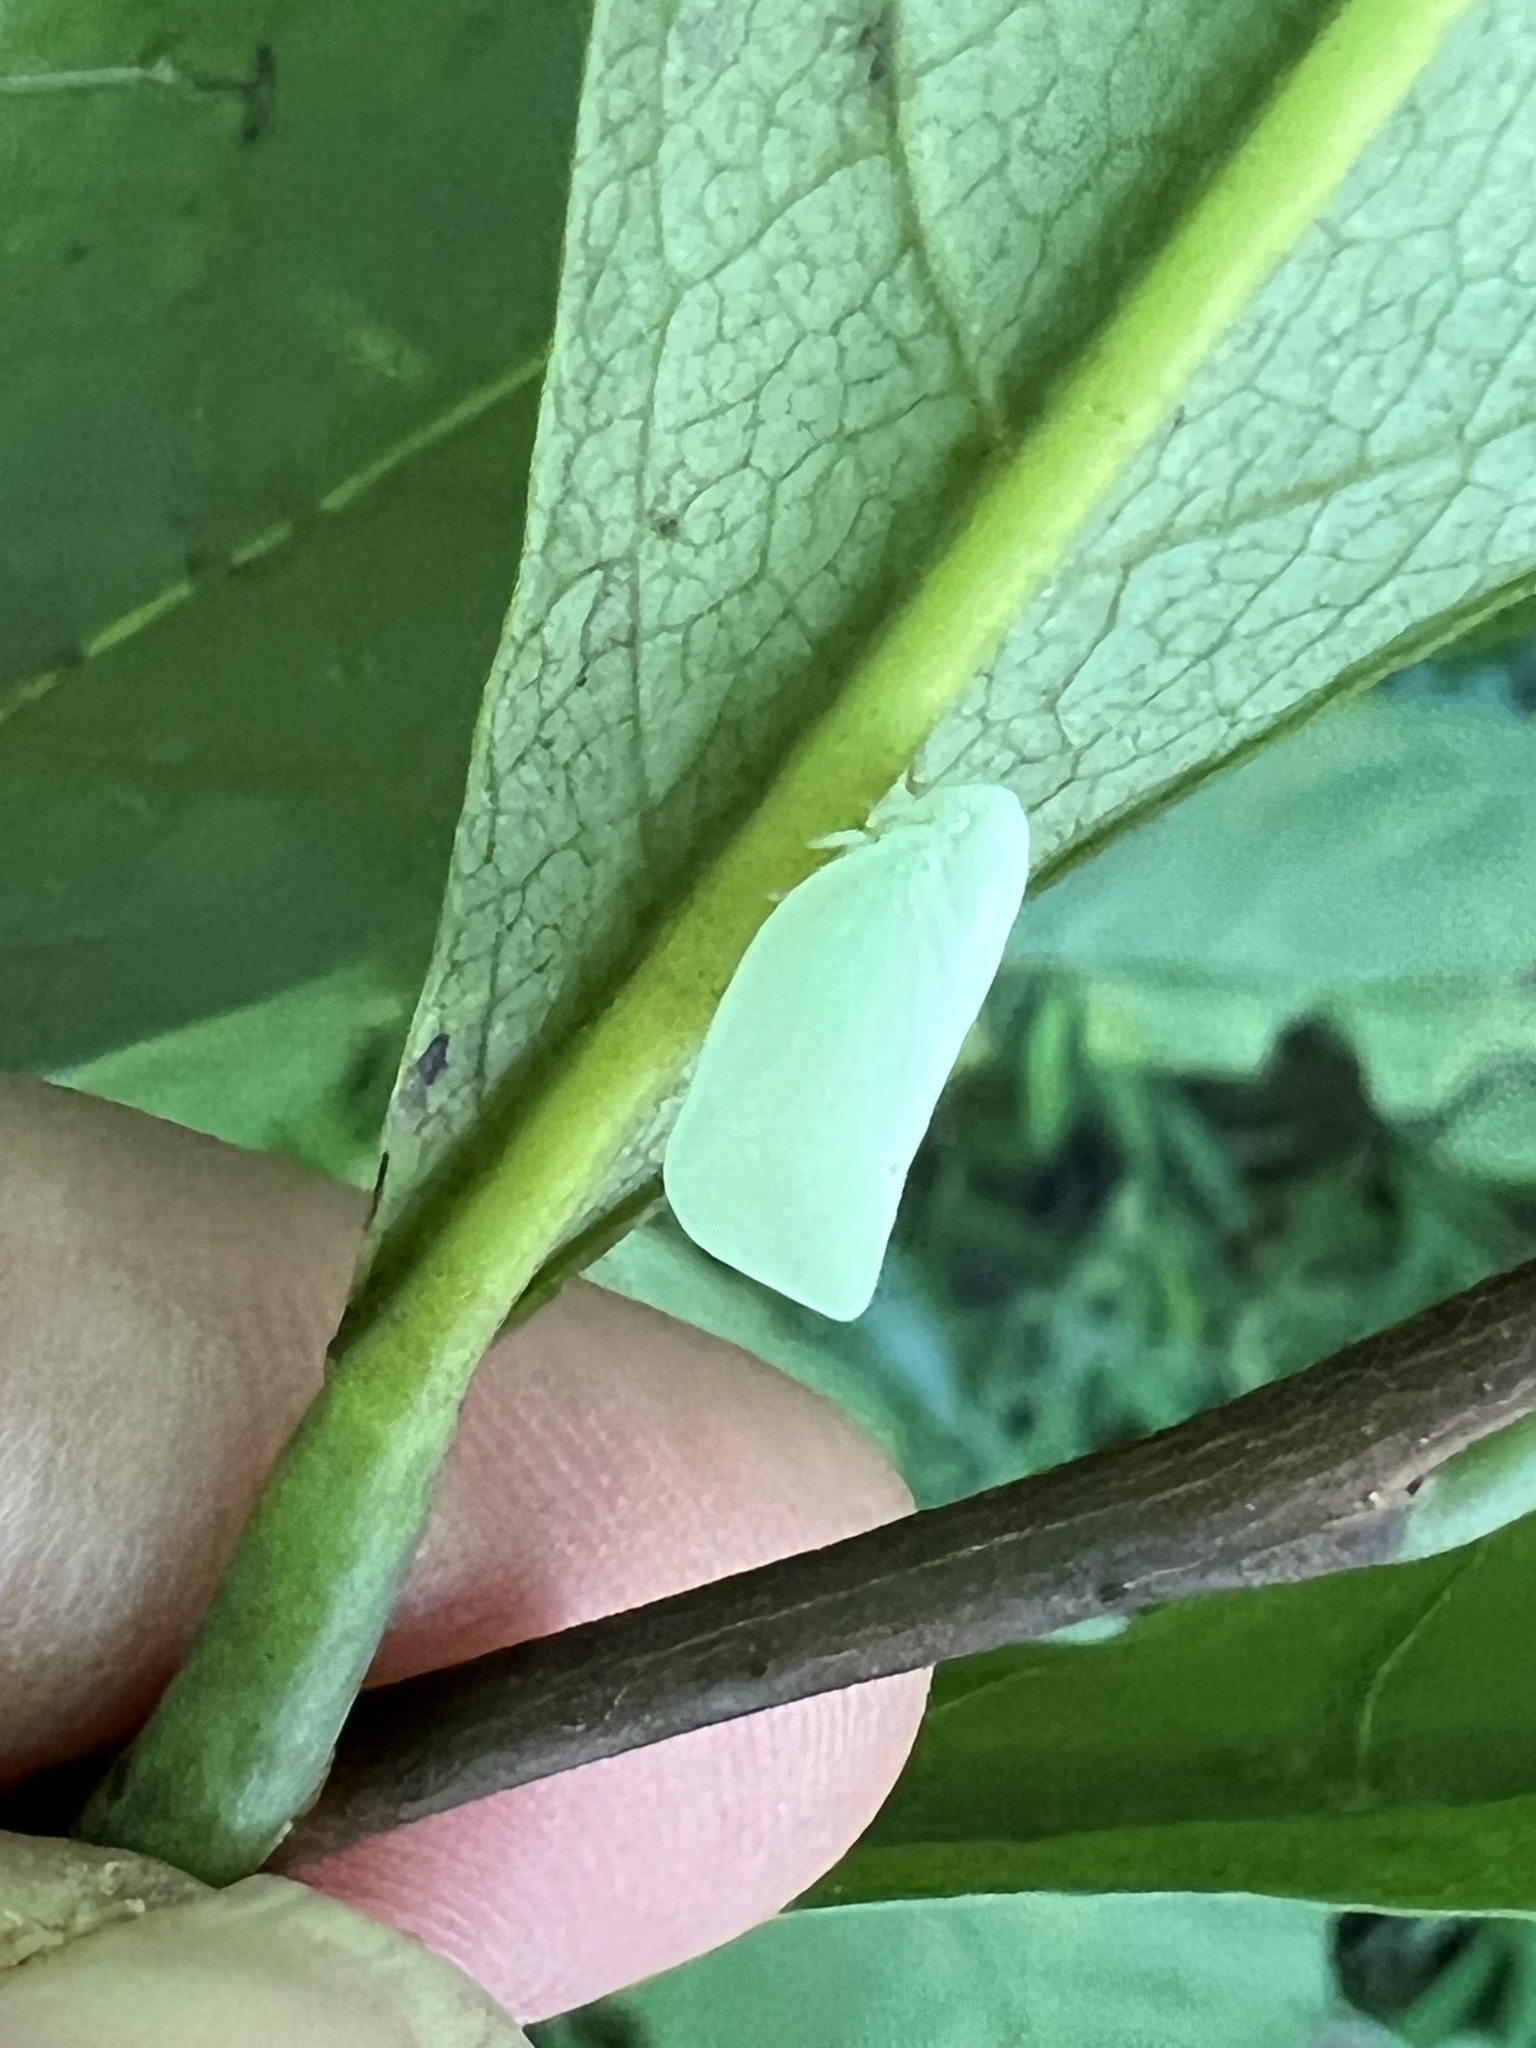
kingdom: Animalia
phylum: Arthropoda
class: Insecta
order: Hemiptera
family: Flatidae
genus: Flatormenis
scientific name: Flatormenis proxima
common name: Northern flatid planthopper
